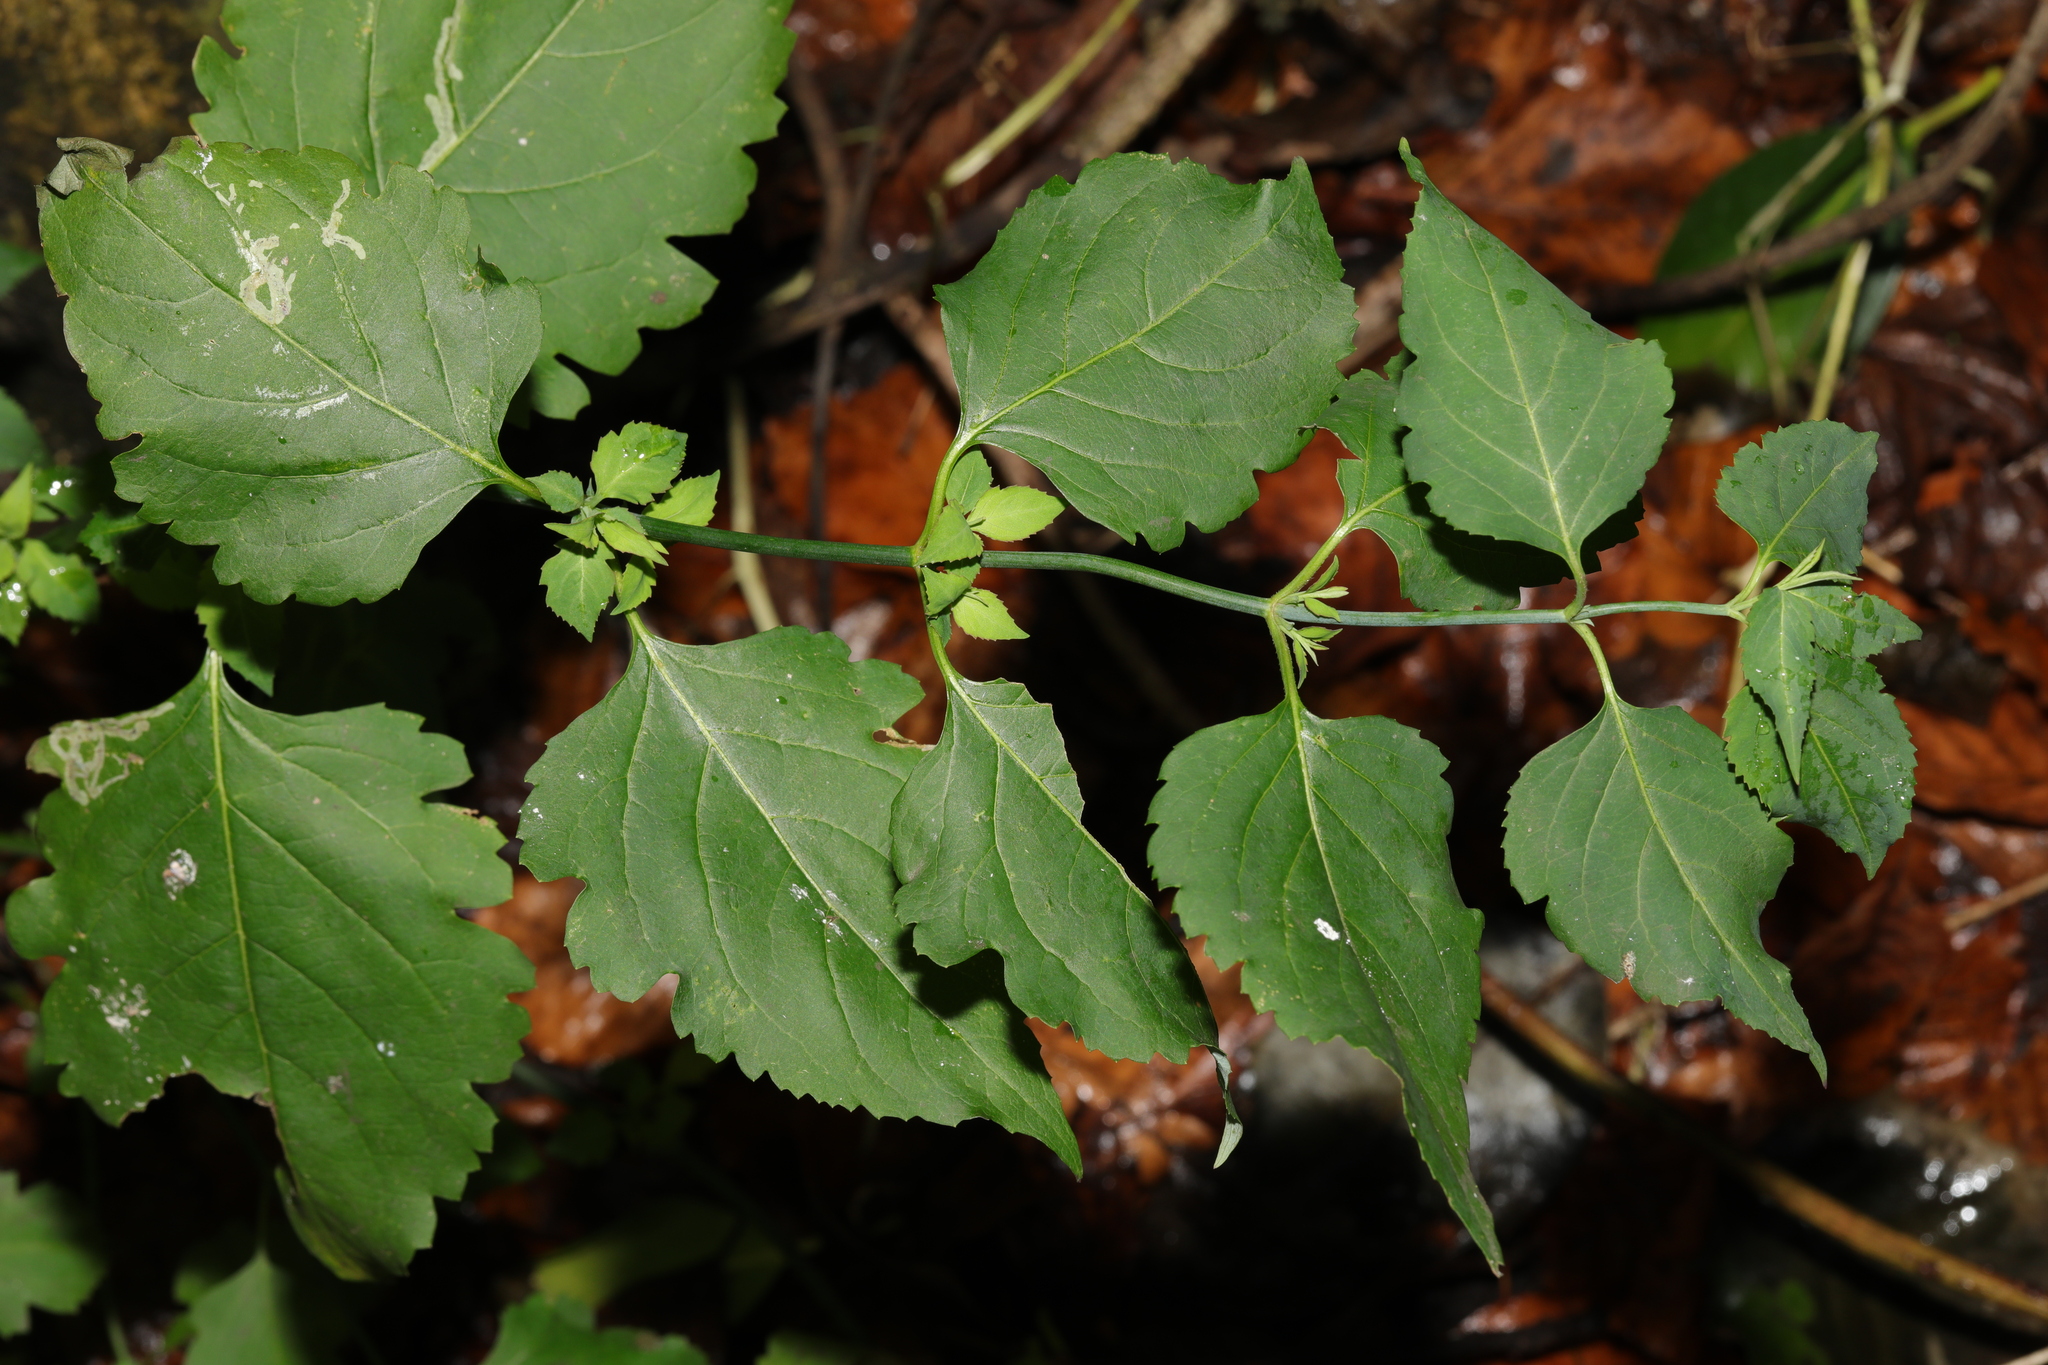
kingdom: Plantae
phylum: Tracheophyta
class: Magnoliopsida
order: Dipsacales
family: Caprifoliaceae
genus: Leycesteria
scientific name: Leycesteria formosa
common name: Himalayan honeysuckle
